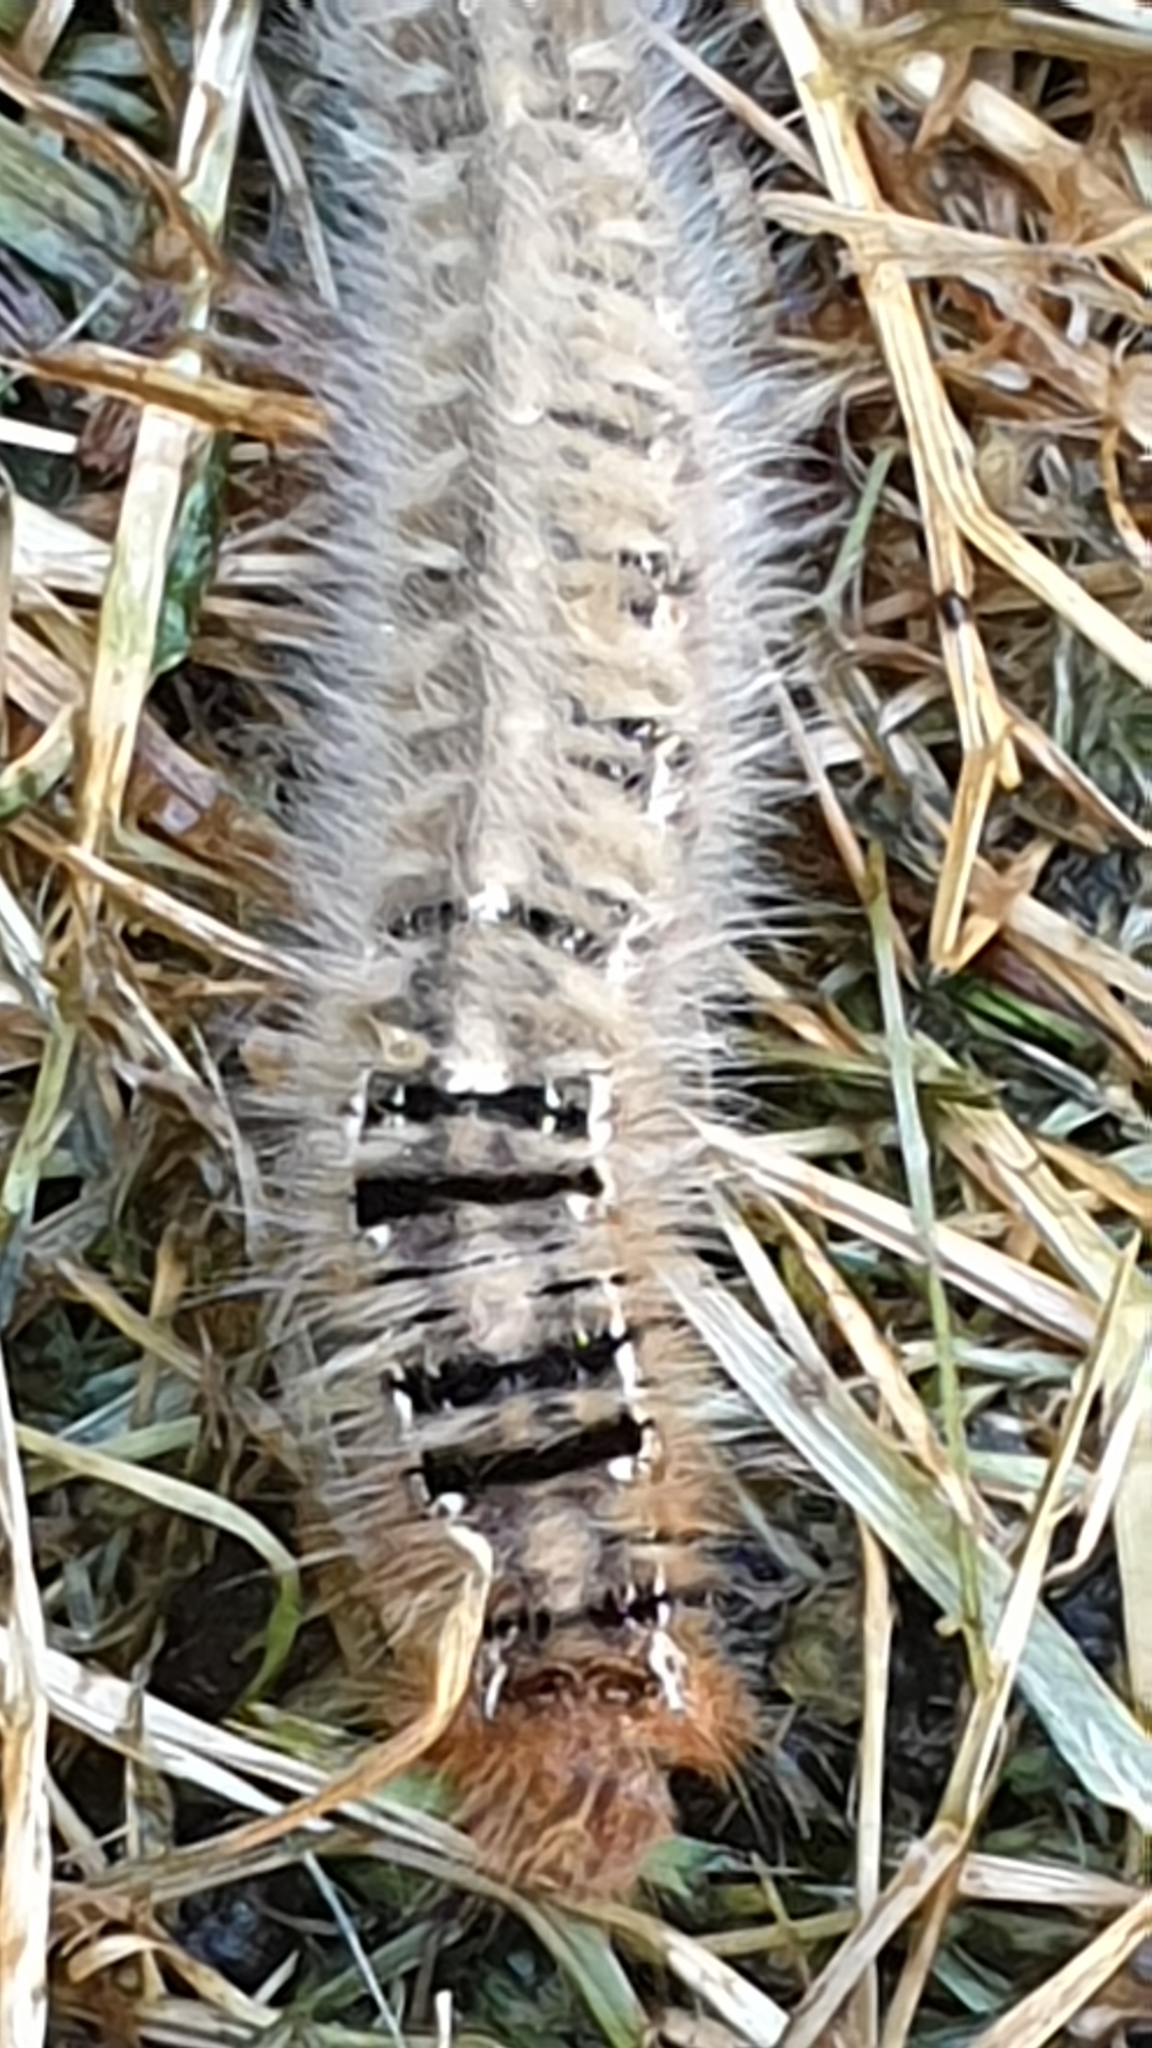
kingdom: Animalia
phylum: Arthropoda
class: Insecta
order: Lepidoptera
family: Lasiocampidae
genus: Lasiocampa
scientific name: Lasiocampa quercus
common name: Oak eggar
